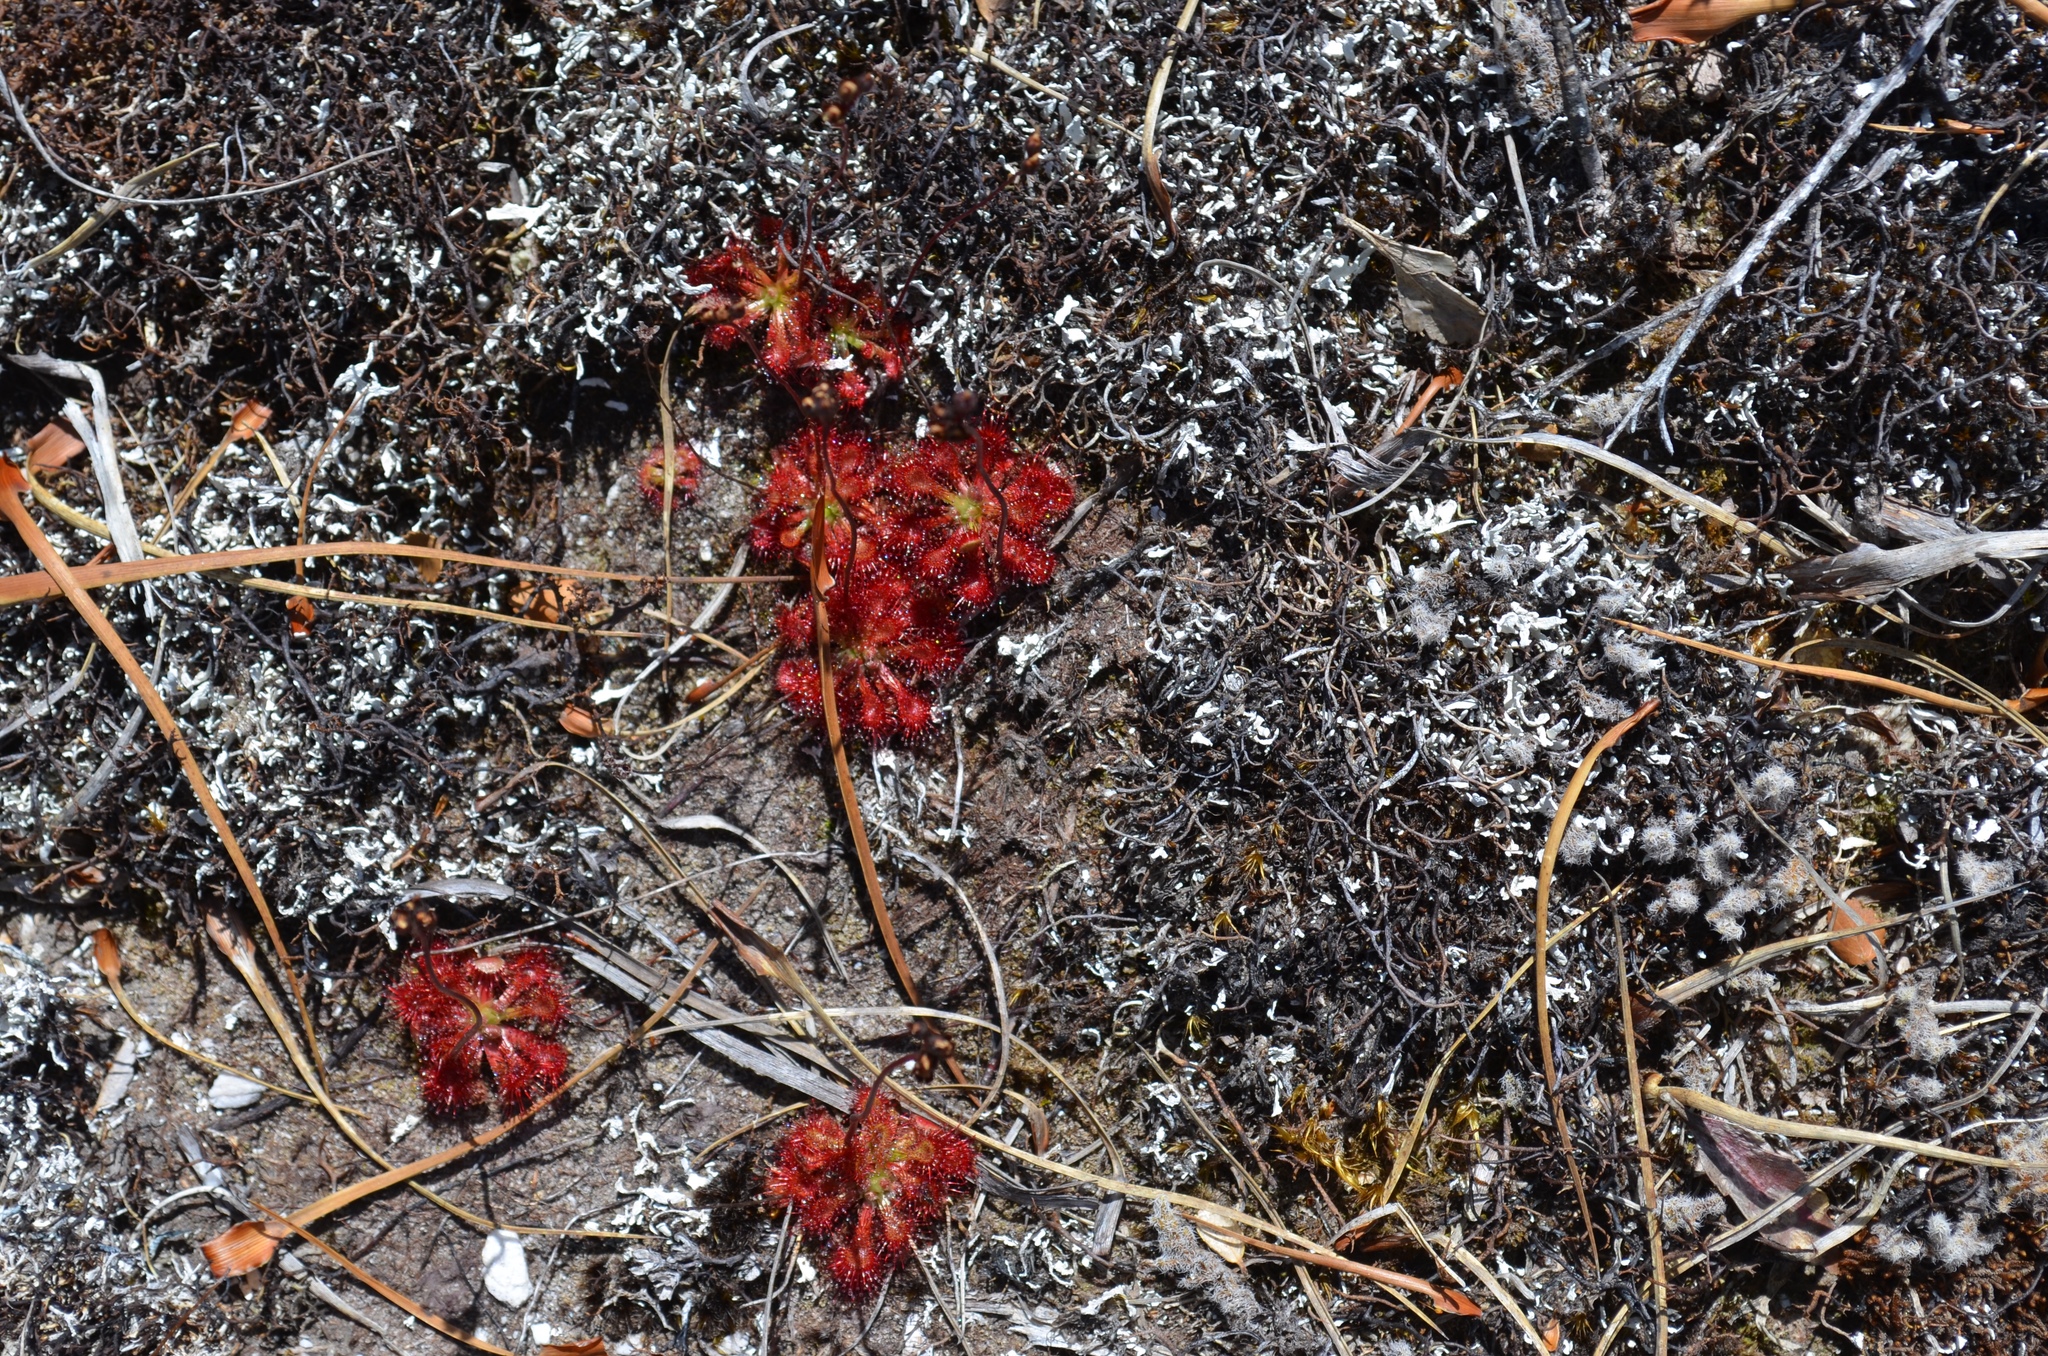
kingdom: Plantae
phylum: Tracheophyta
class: Magnoliopsida
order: Caryophyllales
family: Droseraceae
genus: Drosera
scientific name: Drosera spatulata
